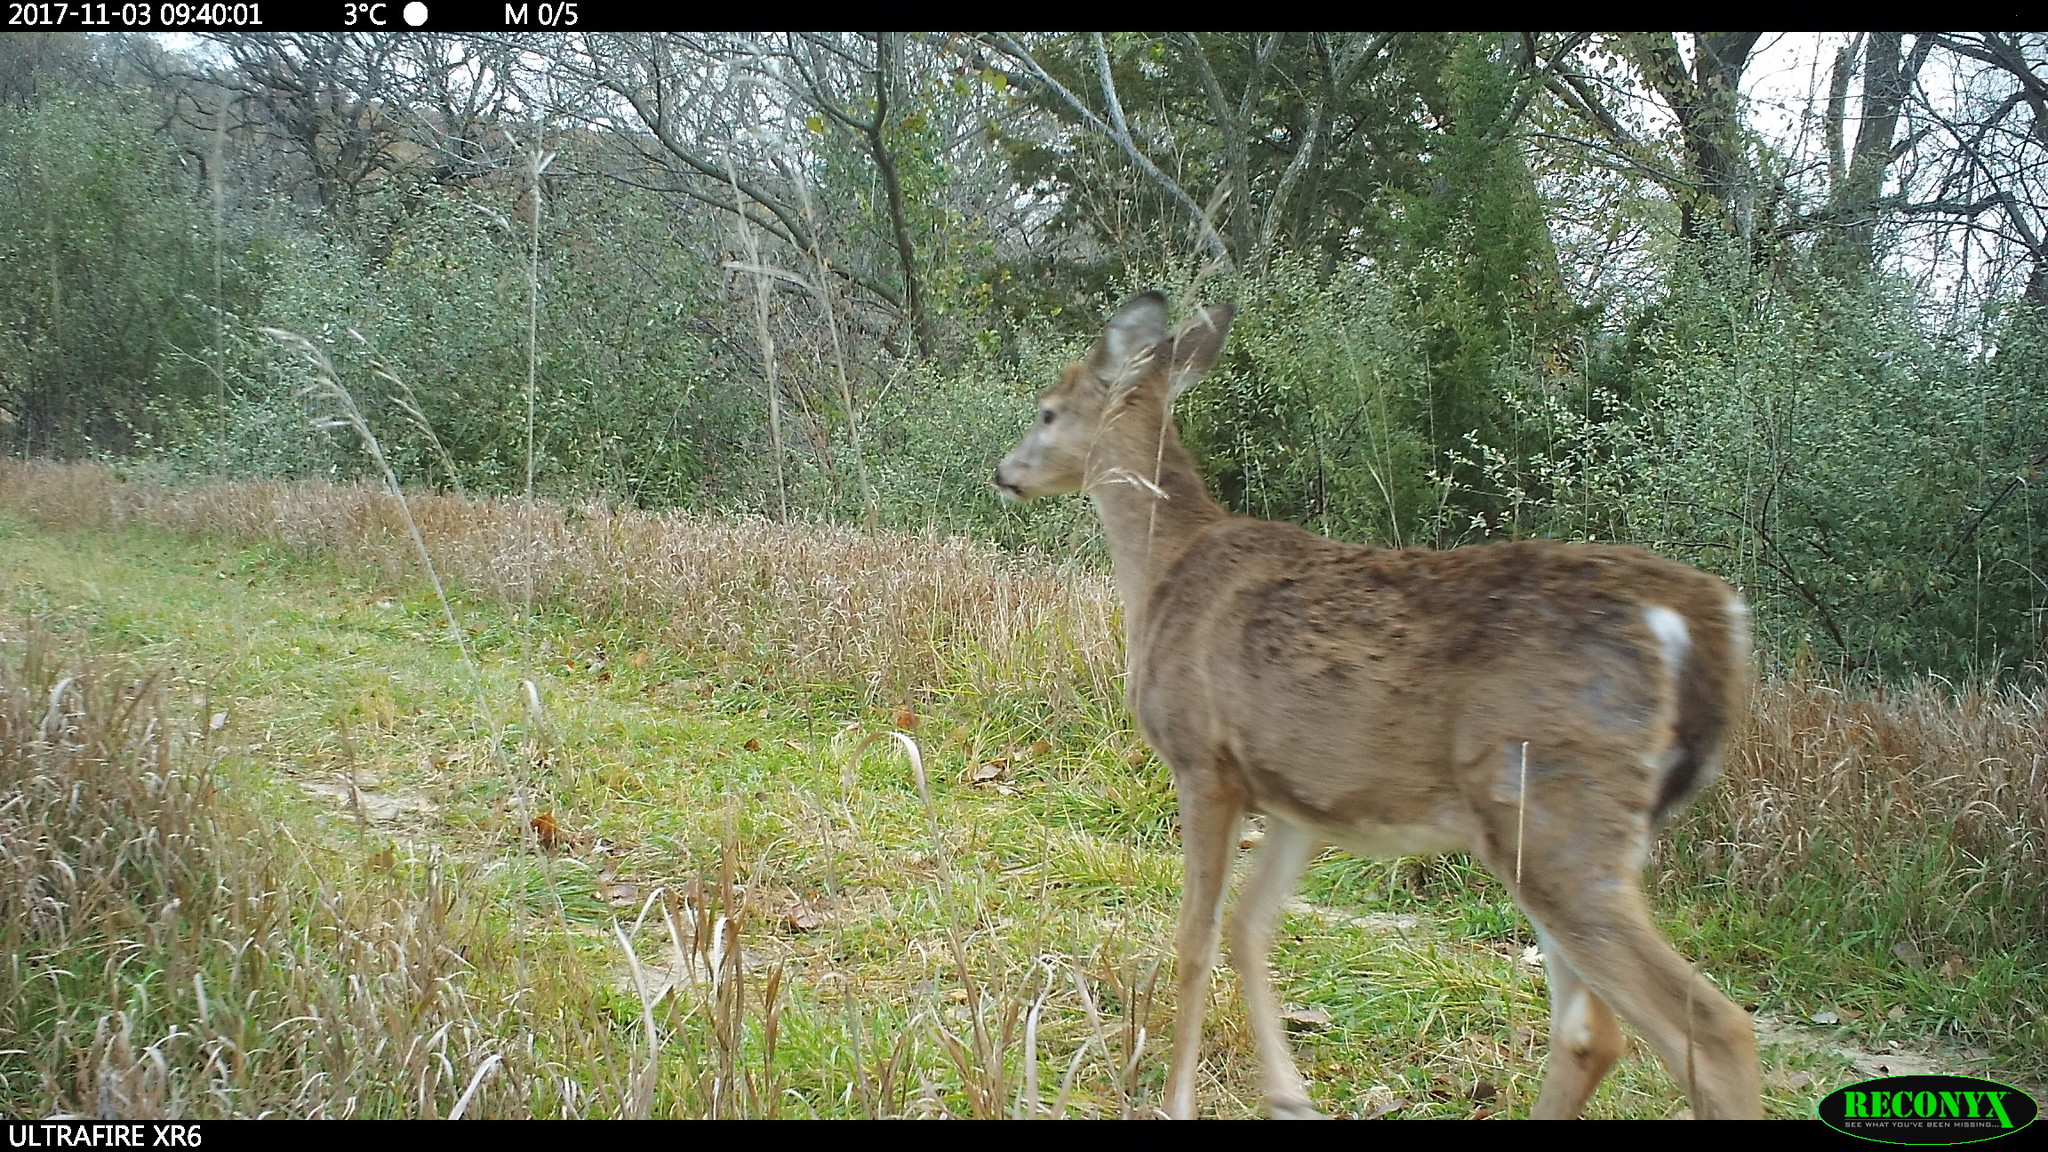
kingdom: Animalia
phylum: Chordata
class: Mammalia
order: Artiodactyla
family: Cervidae
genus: Odocoileus
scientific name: Odocoileus virginianus
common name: White-tailed deer
